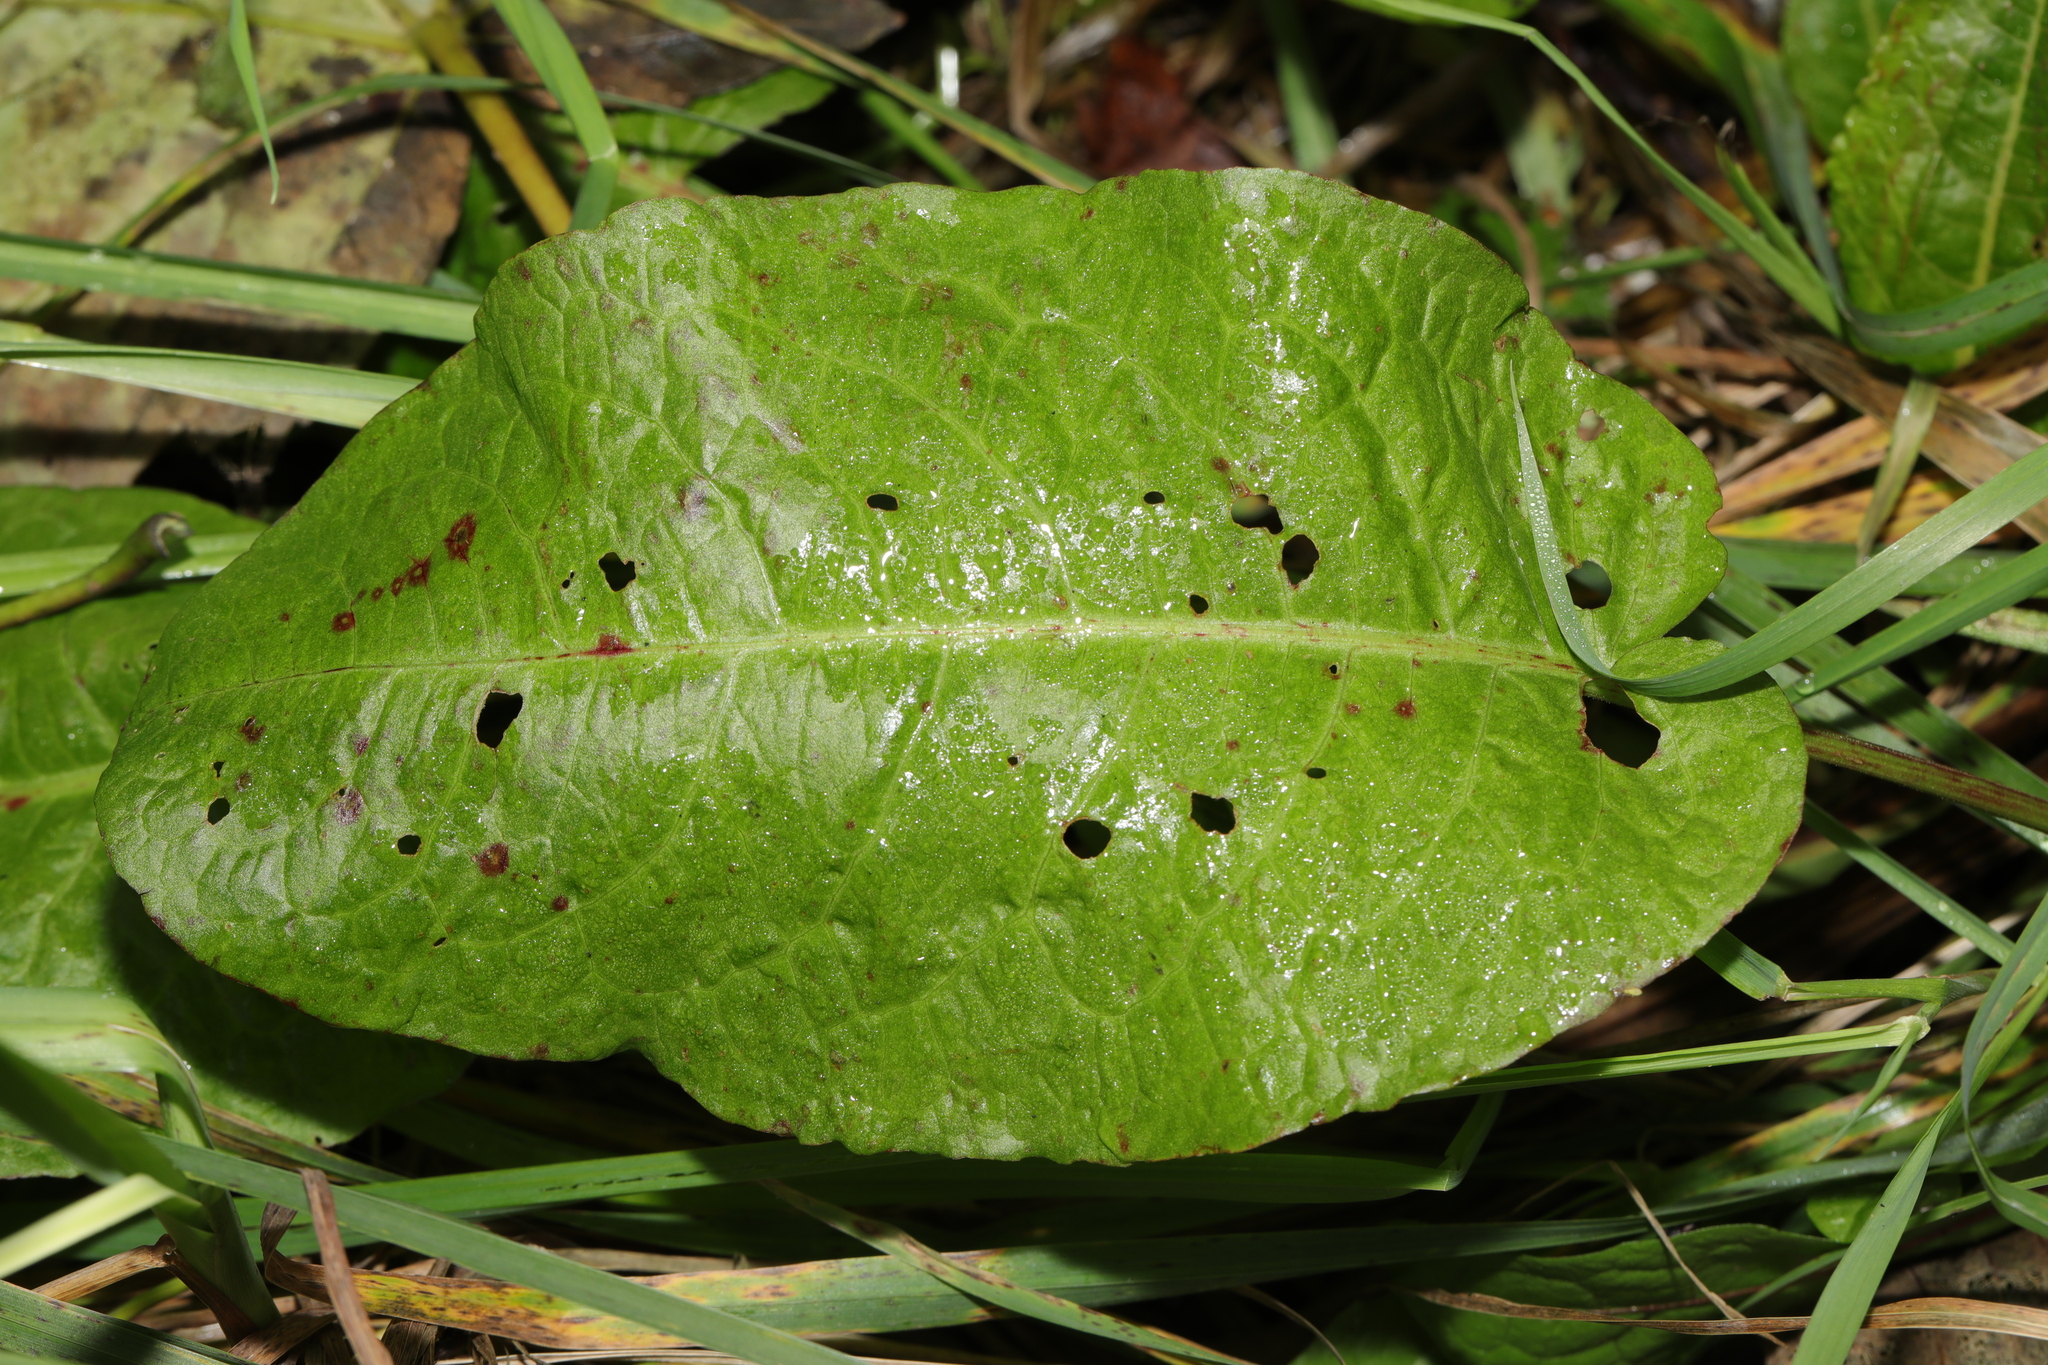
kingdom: Plantae
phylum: Tracheophyta
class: Magnoliopsida
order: Caryophyllales
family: Polygonaceae
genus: Rumex
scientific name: Rumex obtusifolius
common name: Bitter dock
